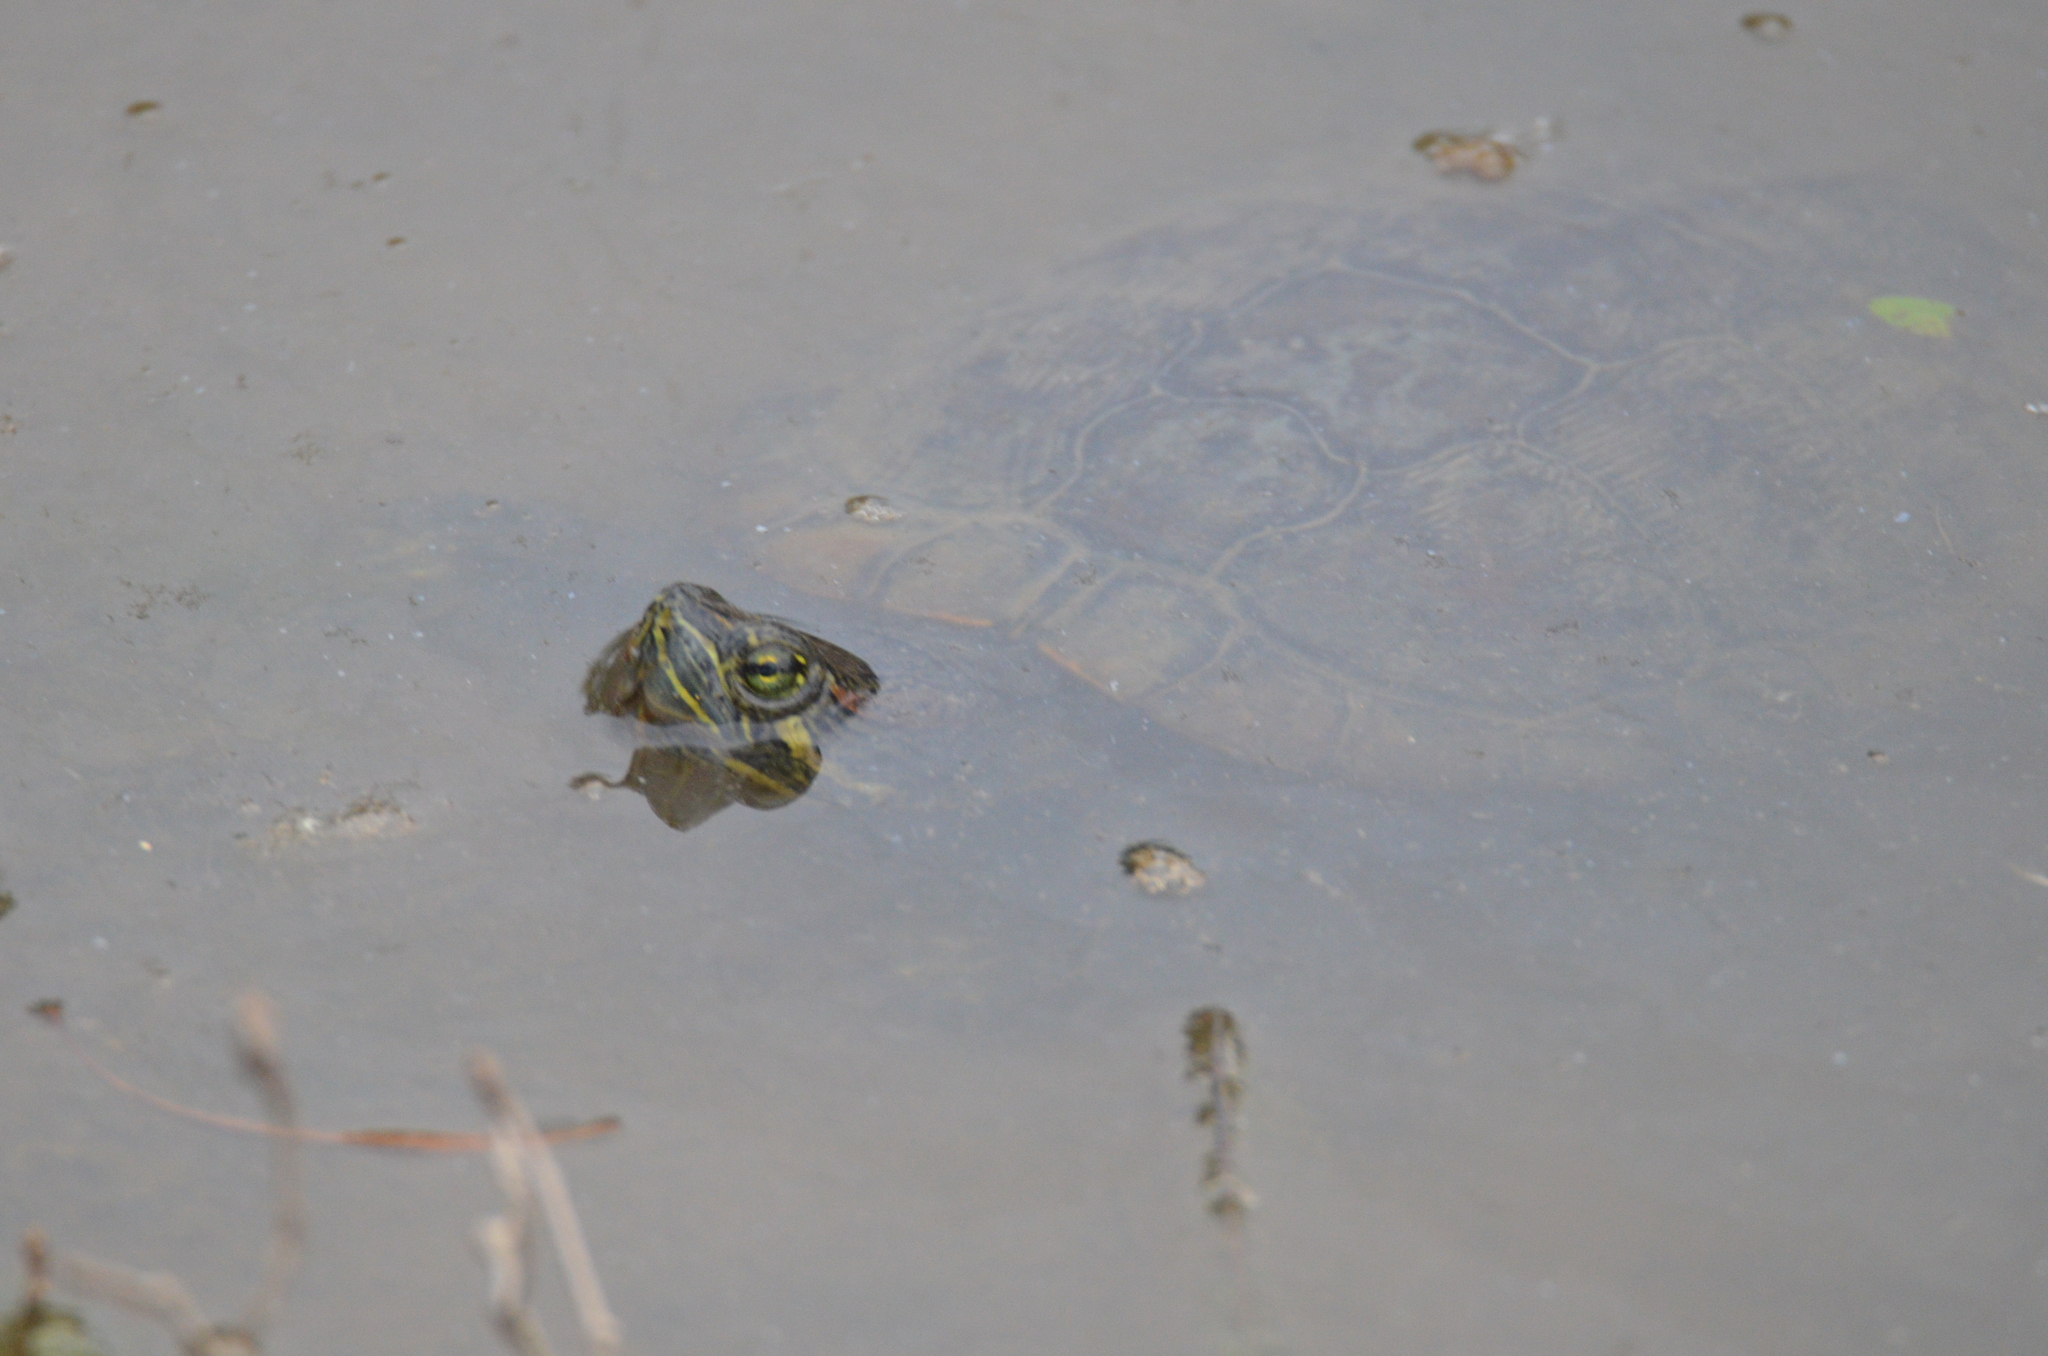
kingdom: Animalia
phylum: Chordata
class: Testudines
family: Emydidae
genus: Trachemys
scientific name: Trachemys scripta
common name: Slider
